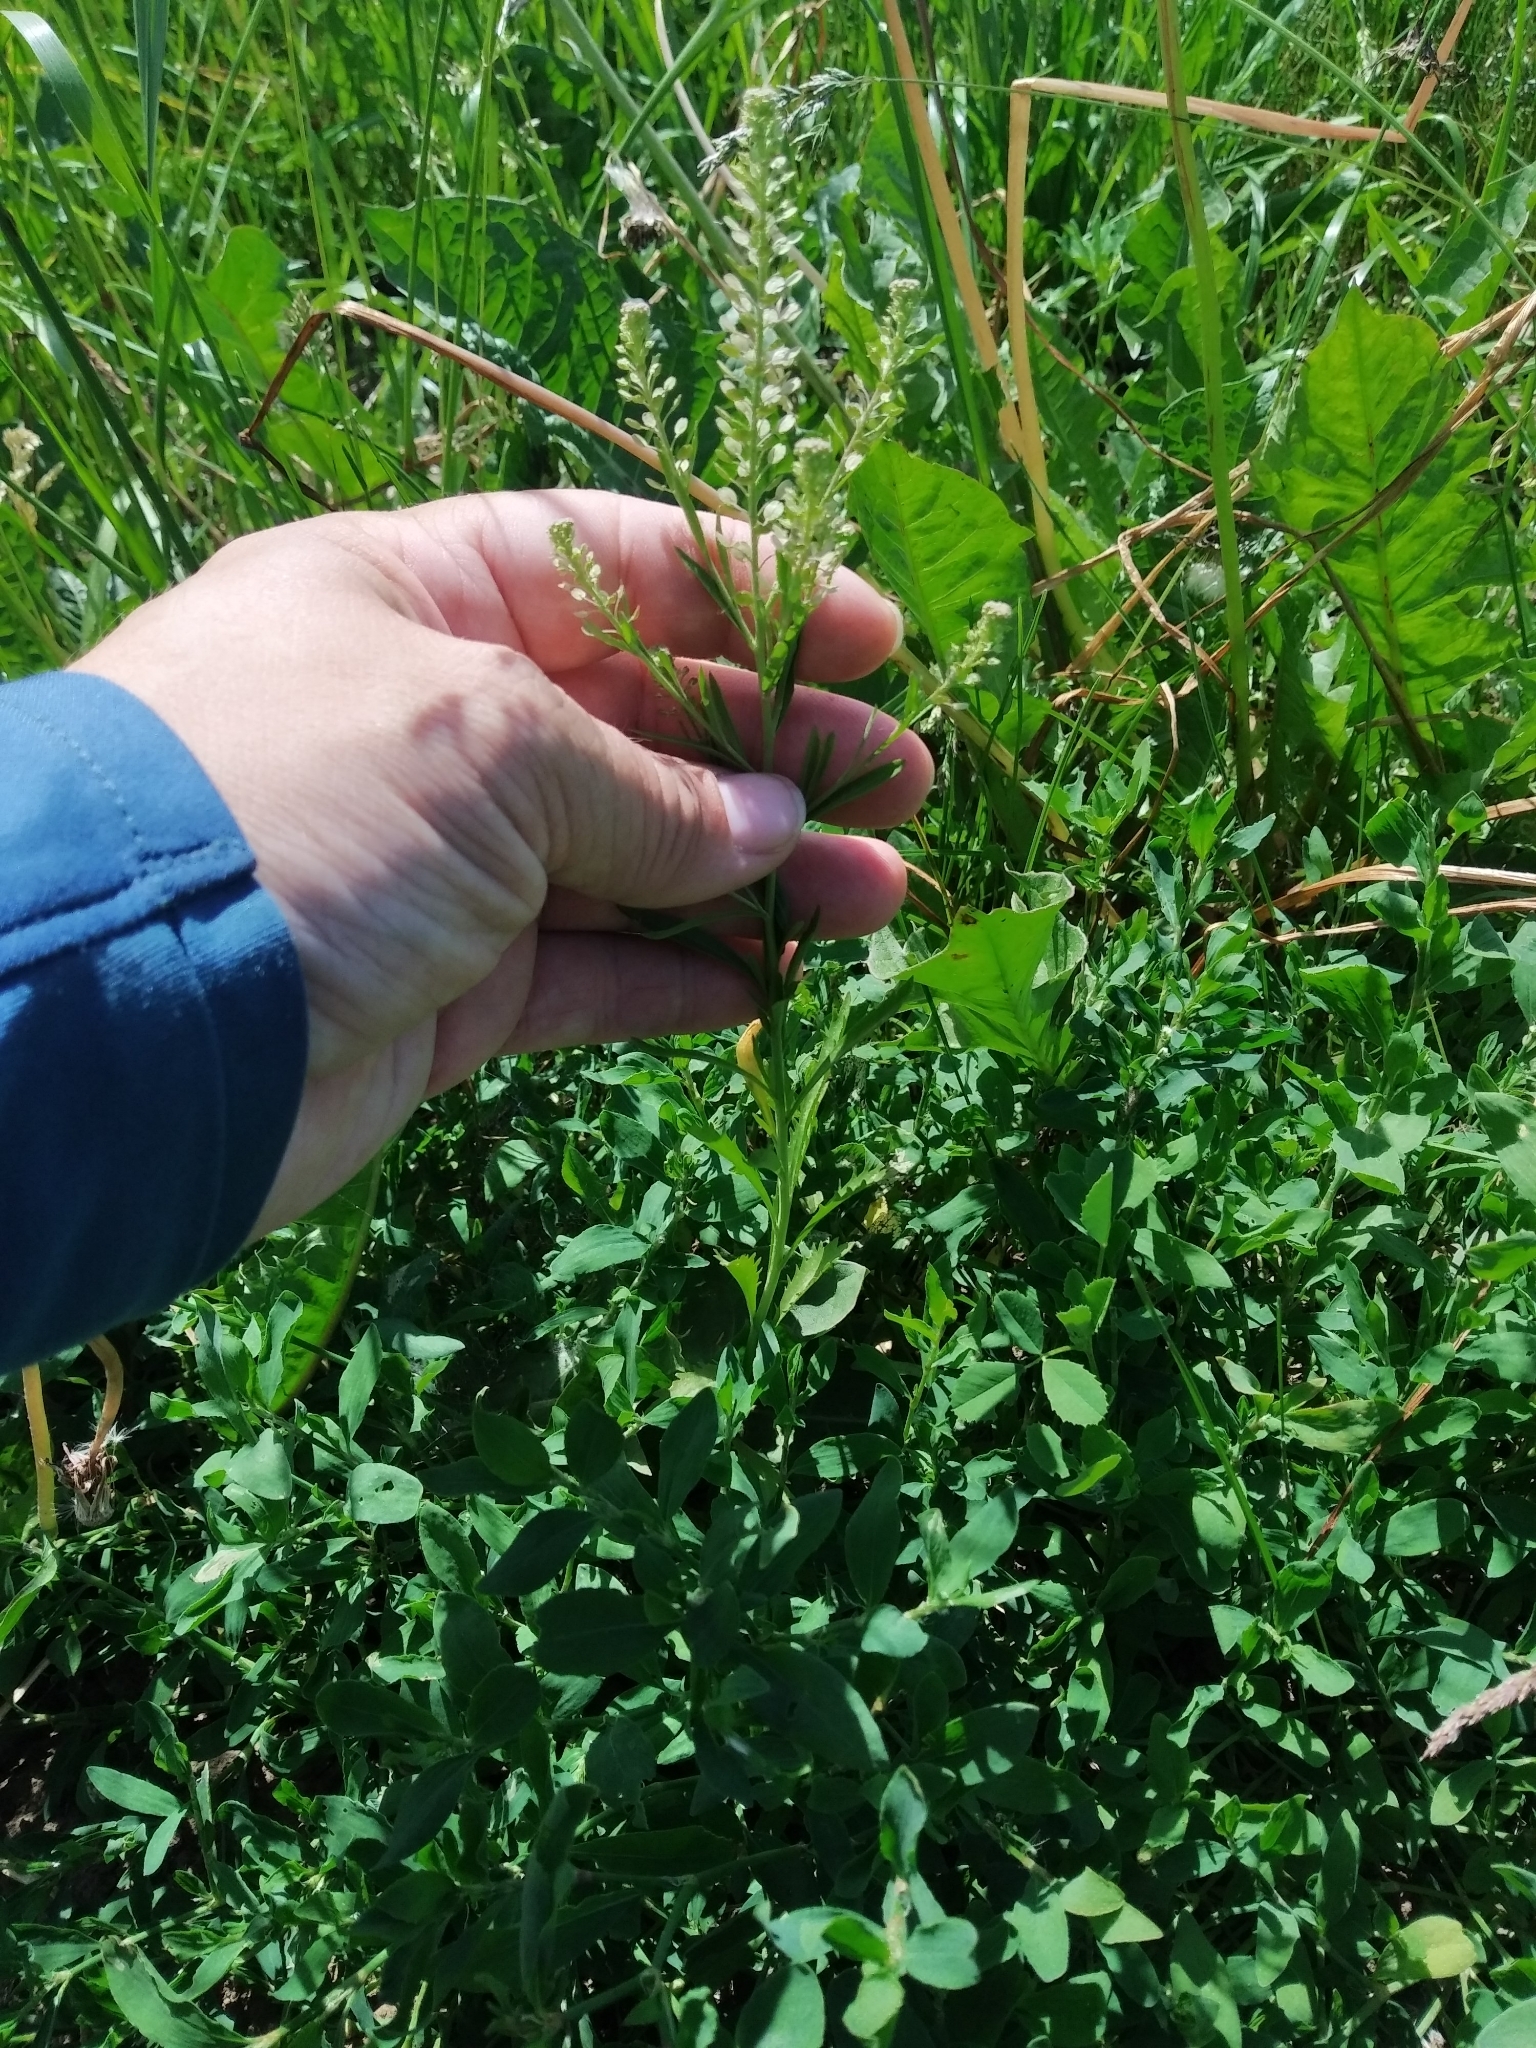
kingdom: Plantae
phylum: Tracheophyta
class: Magnoliopsida
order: Brassicales
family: Brassicaceae
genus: Lepidium
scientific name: Lepidium densiflorum
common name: Miner's pepperwort
